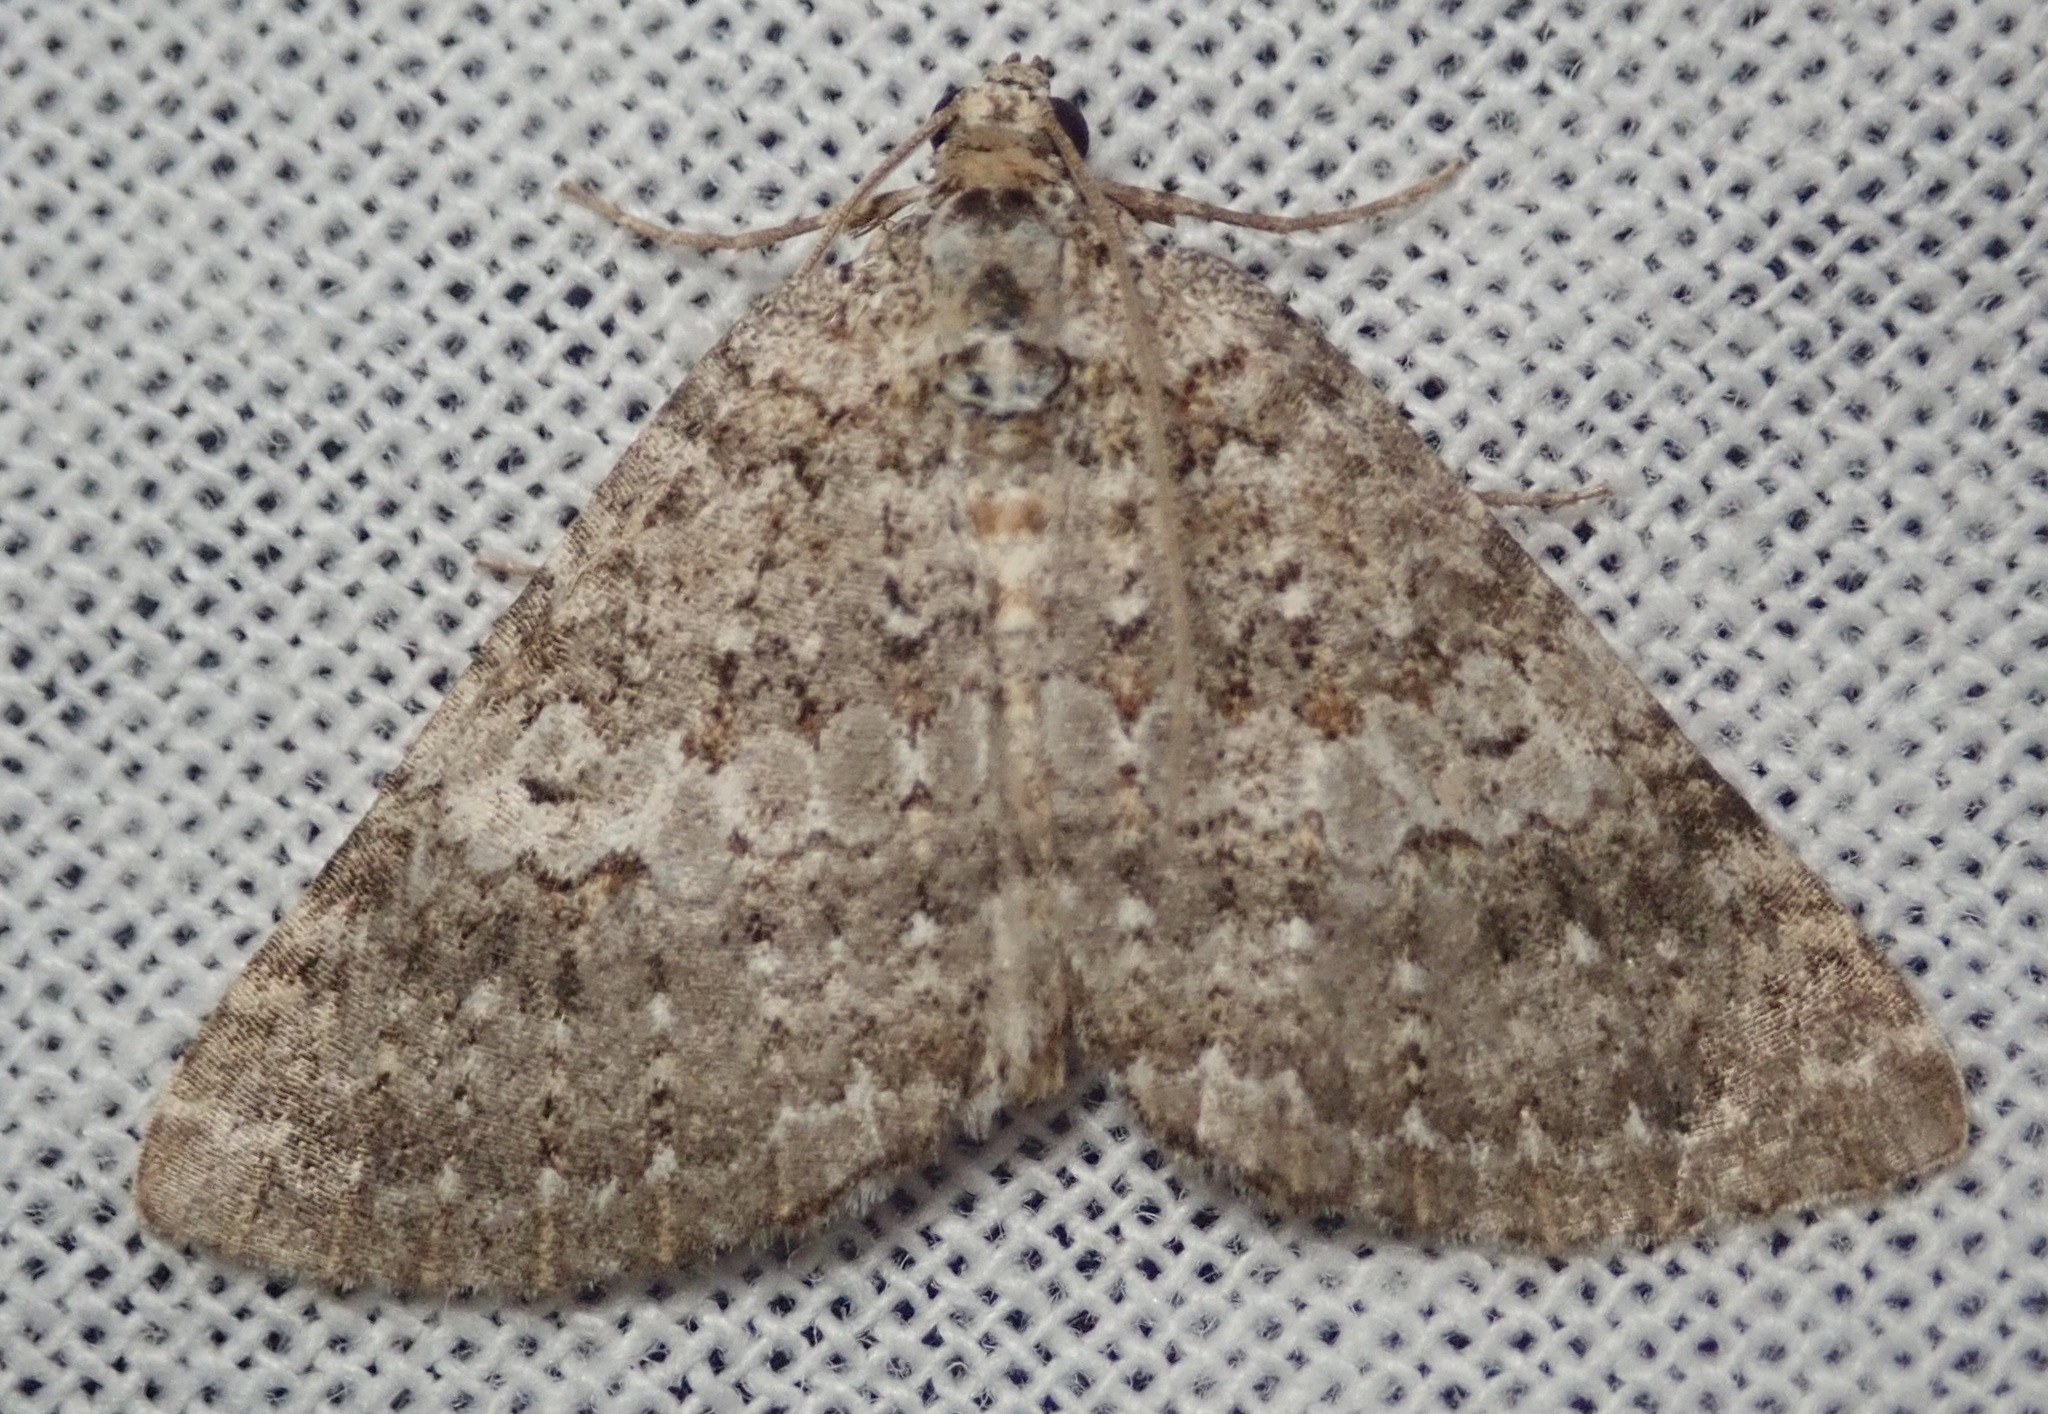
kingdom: Animalia
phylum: Arthropoda
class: Insecta
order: Lepidoptera
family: Geometridae
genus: Euphyia
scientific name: Euphyia implicata
